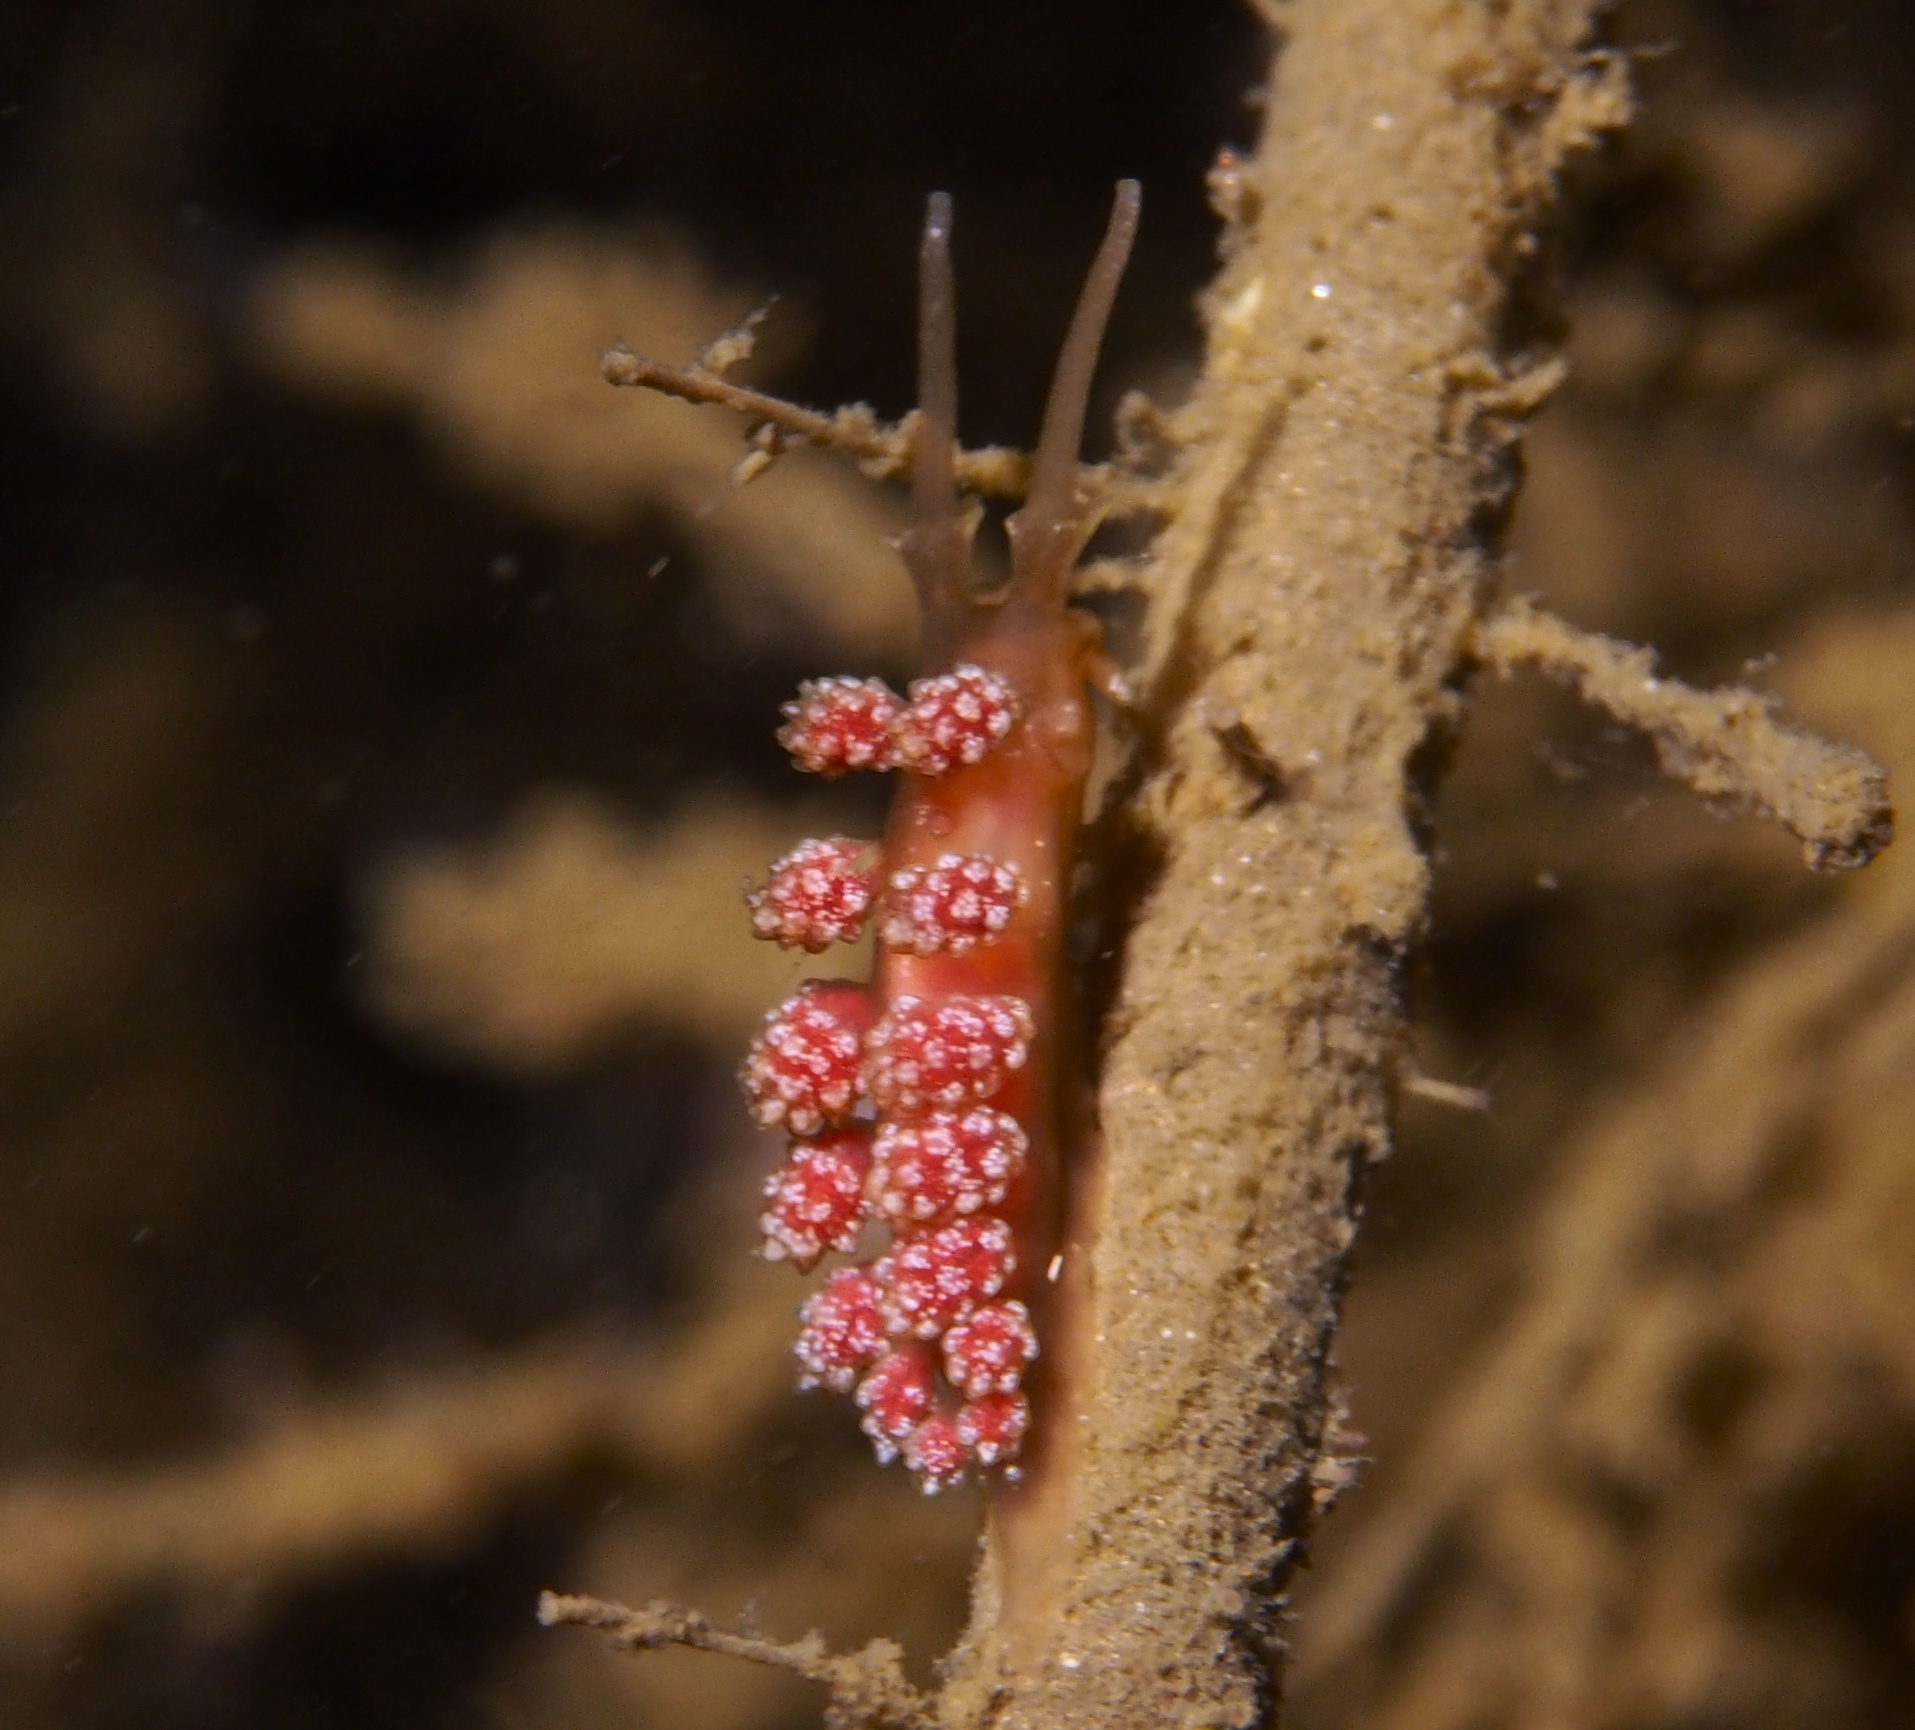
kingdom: Animalia
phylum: Mollusca
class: Gastropoda
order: Nudibranchia
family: Dotidae
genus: Doto
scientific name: Doto fragilis
